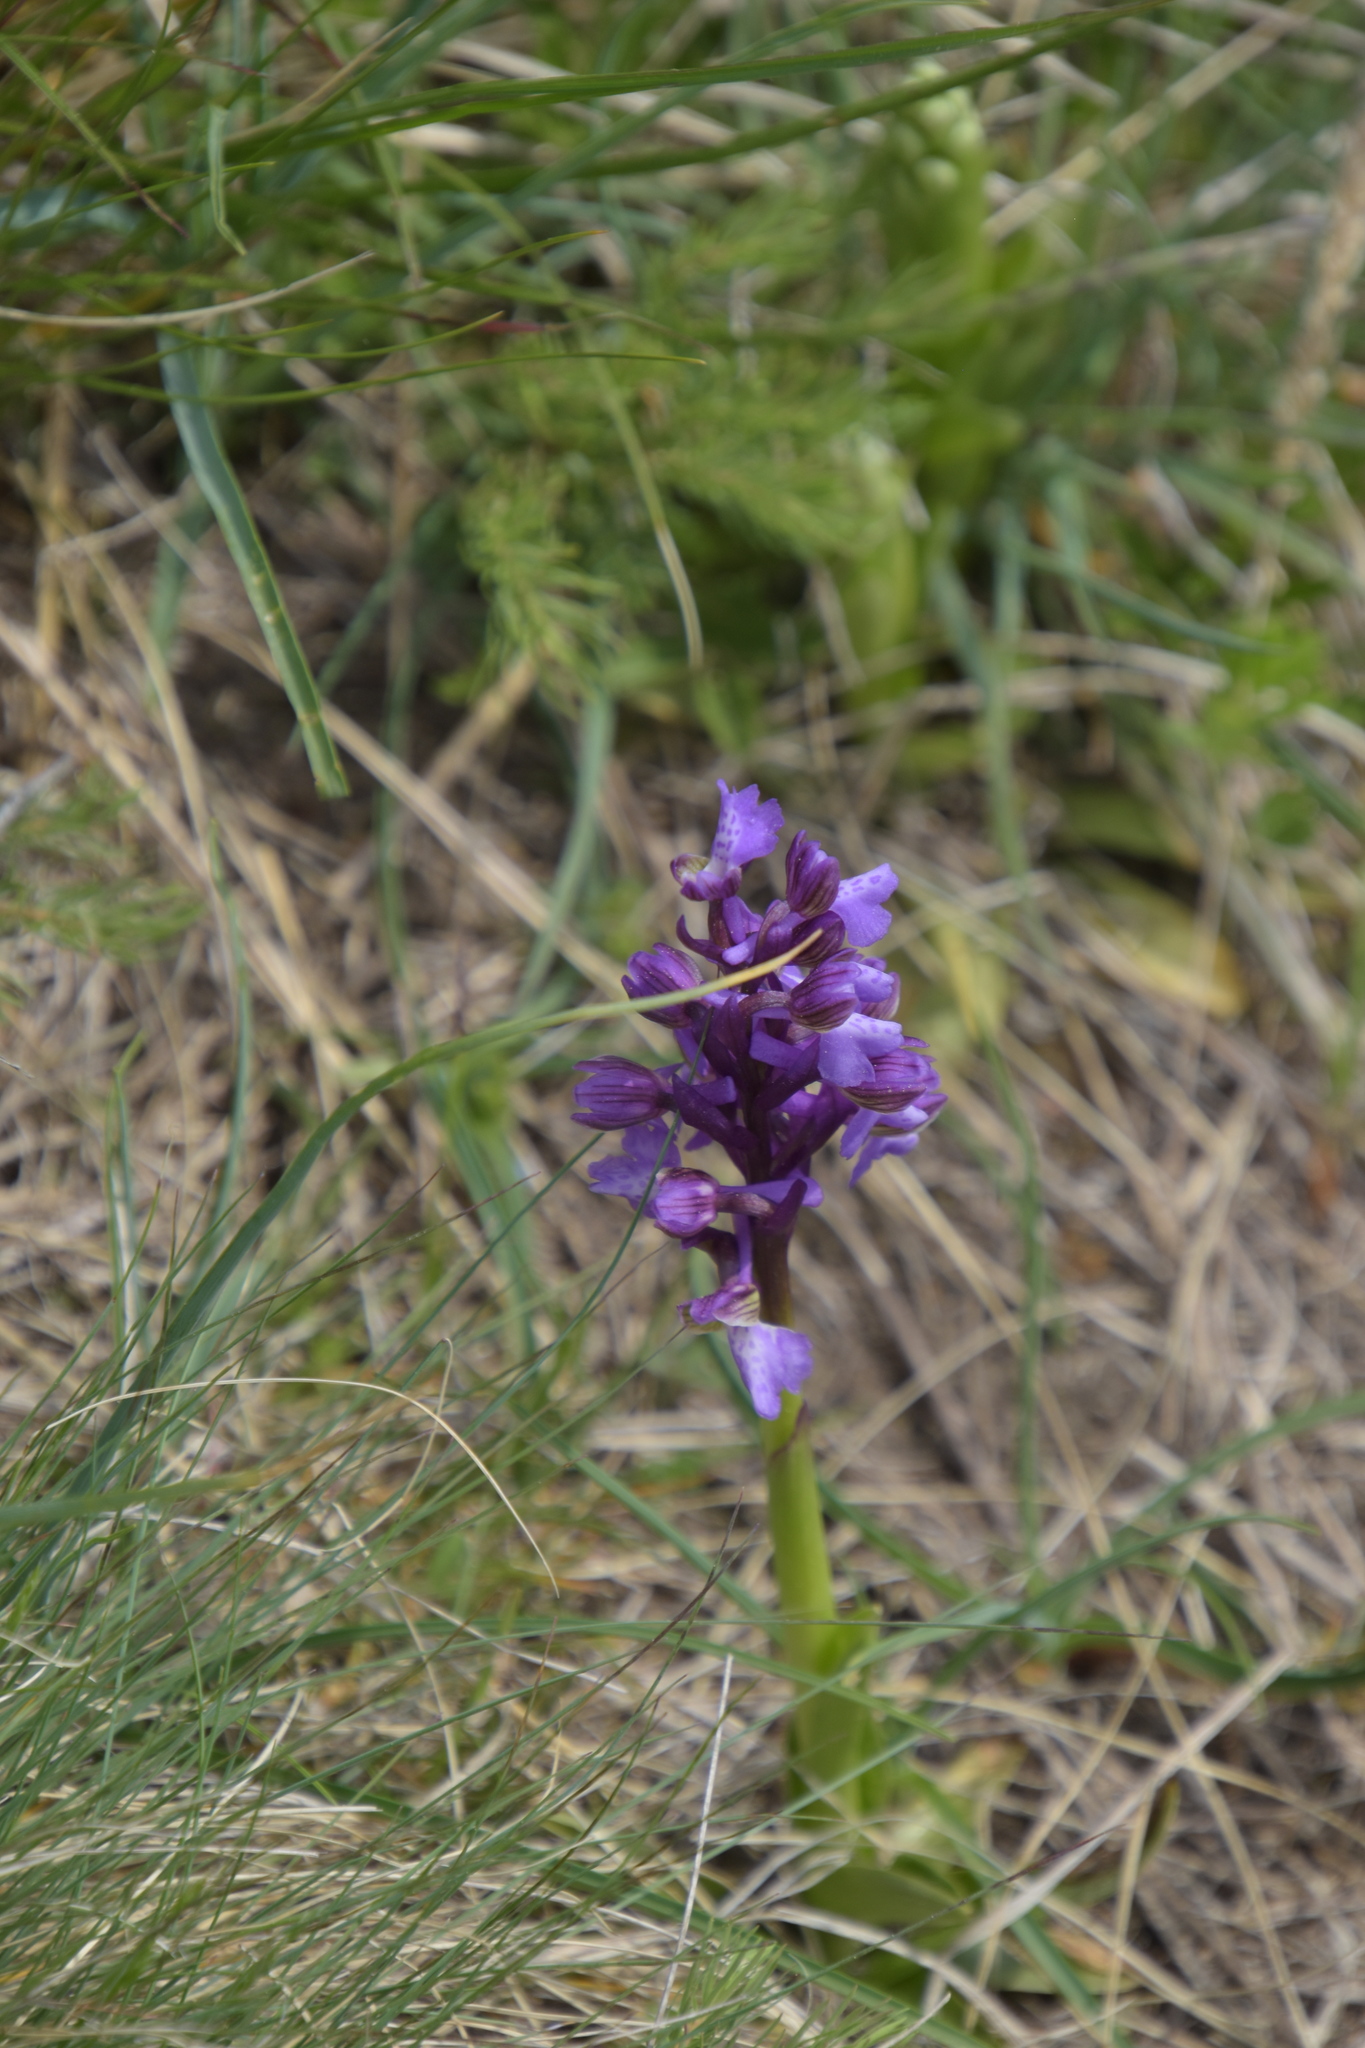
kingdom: Plantae
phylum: Tracheophyta
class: Liliopsida
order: Asparagales
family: Orchidaceae
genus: Anacamptis
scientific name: Anacamptis morio
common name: Green-winged orchid
